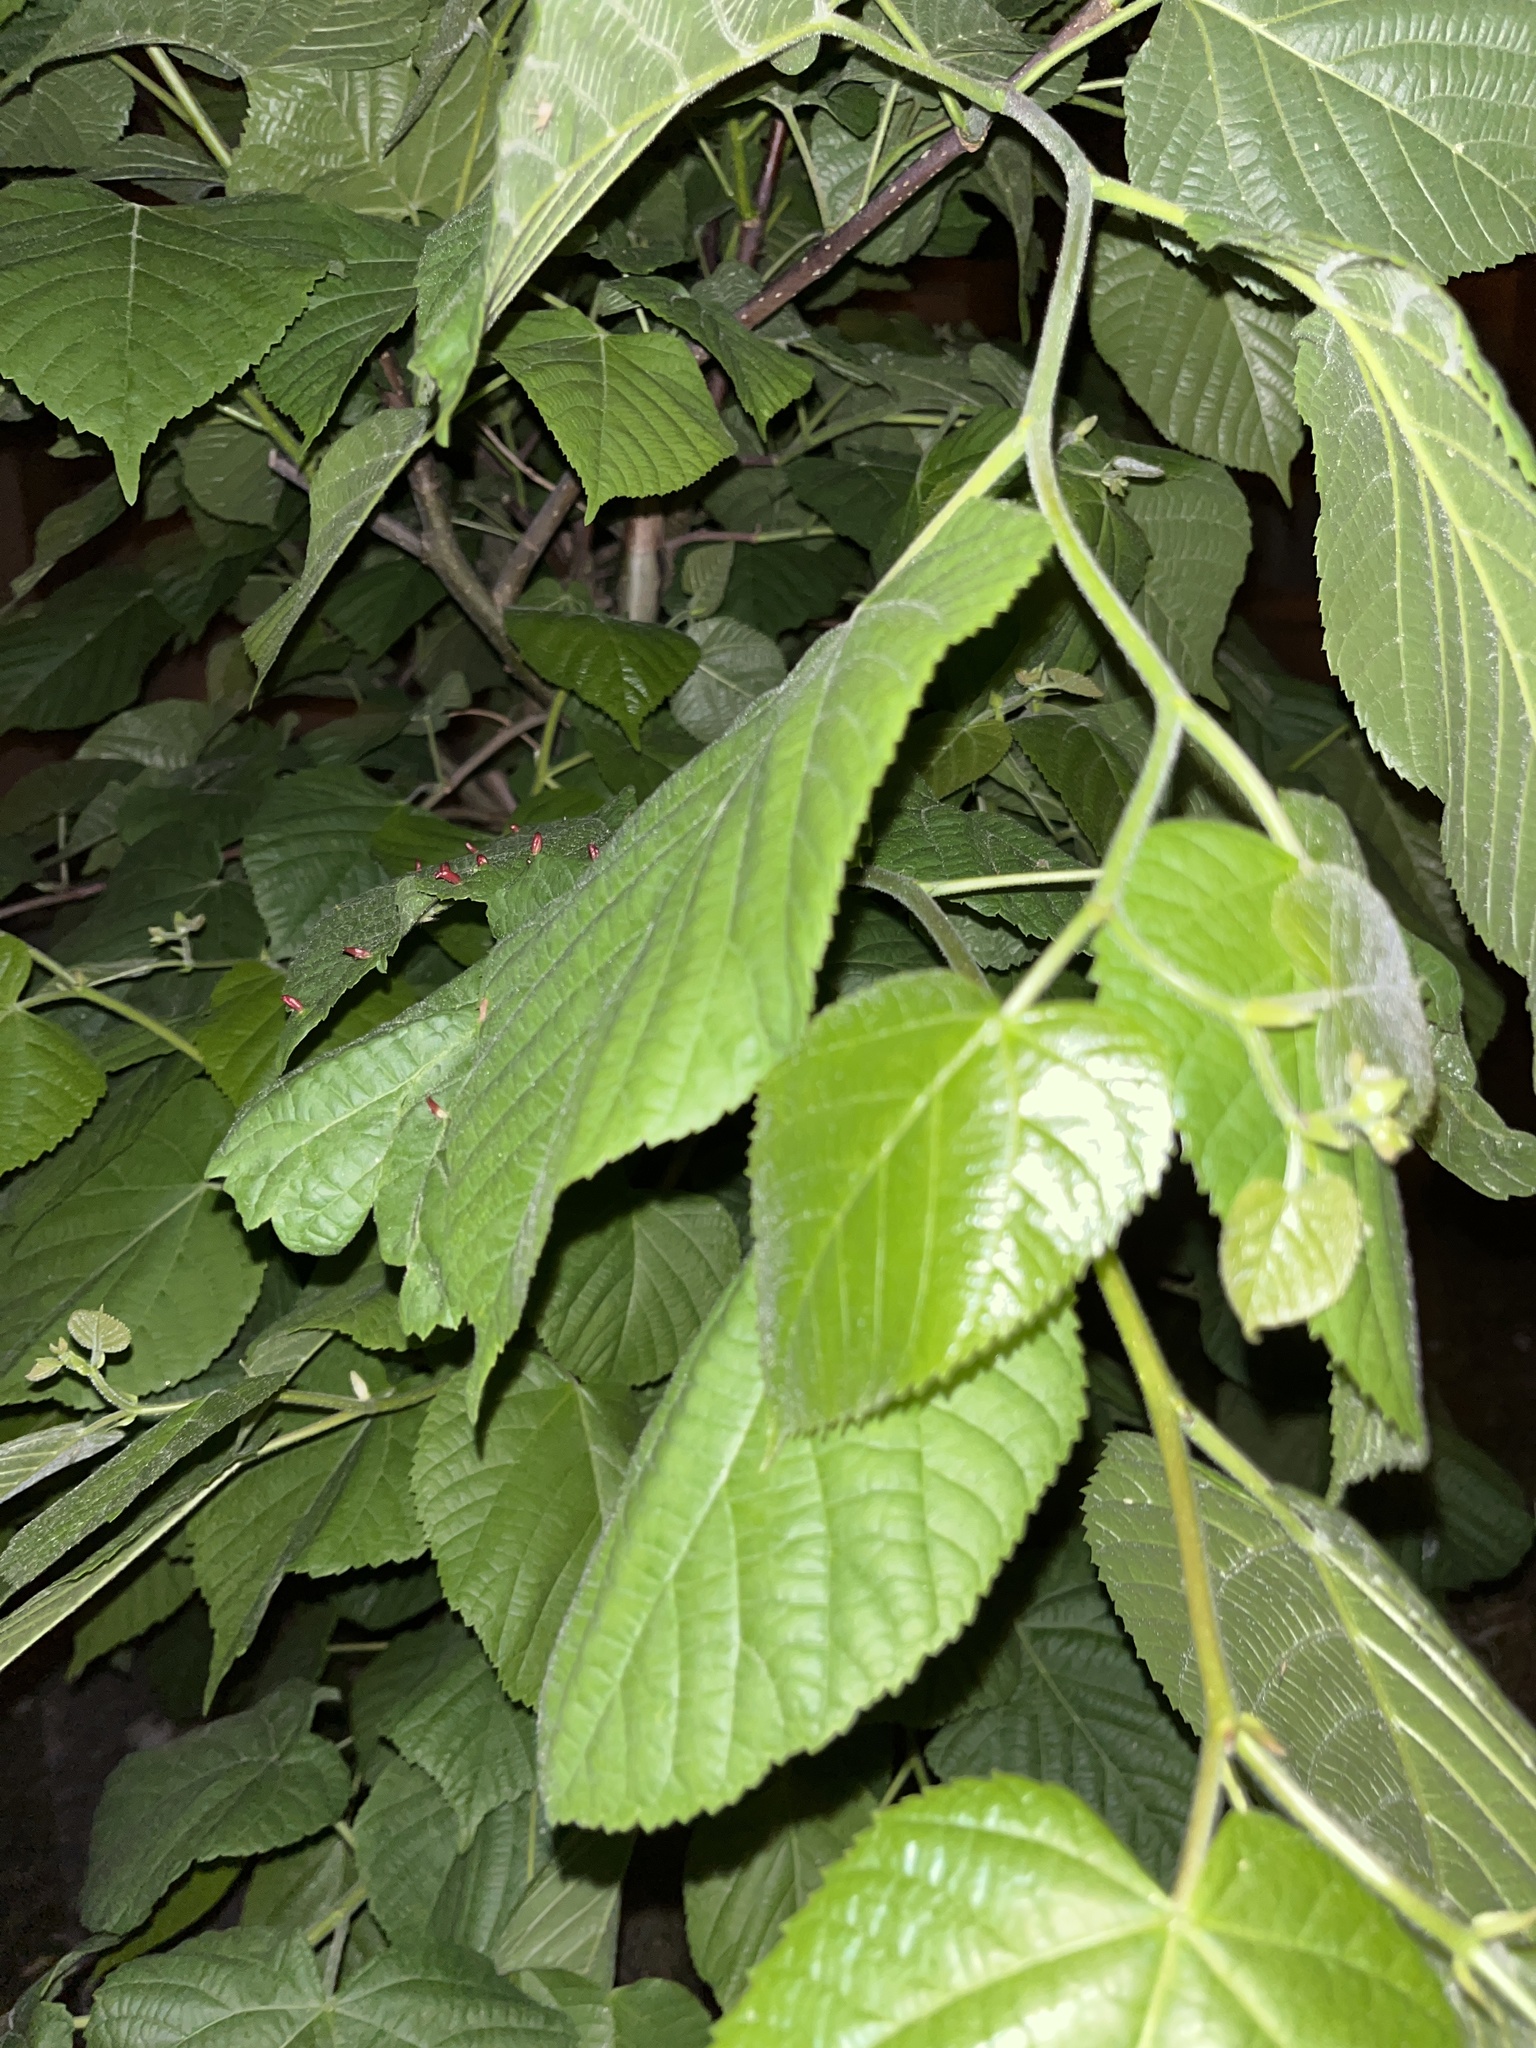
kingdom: Plantae
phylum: Tracheophyta
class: Magnoliopsida
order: Malvales
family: Malvaceae
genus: Tilia
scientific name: Tilia platyphyllos
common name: Large-leaved lime
